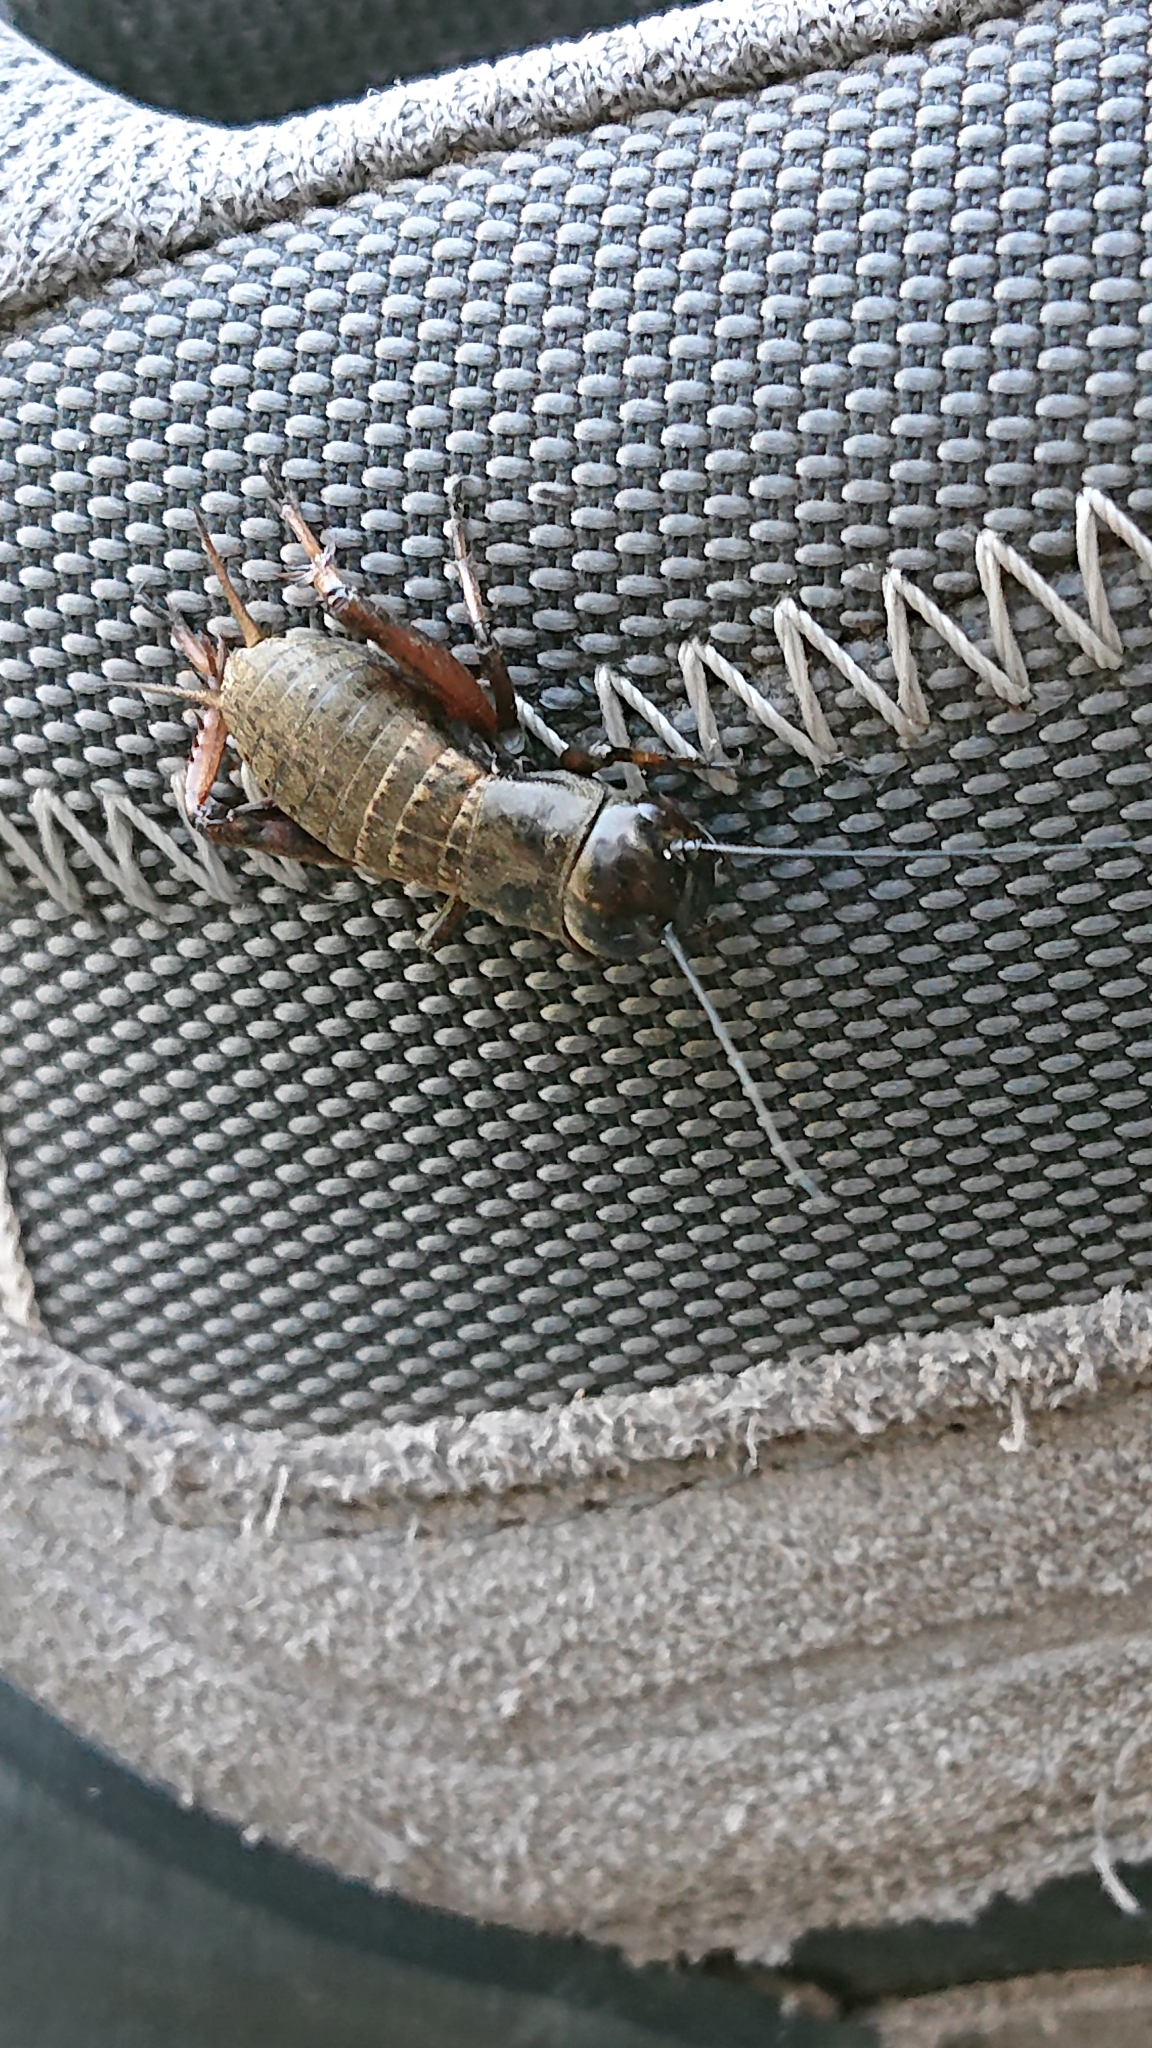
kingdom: Animalia
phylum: Arthropoda
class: Insecta
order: Orthoptera
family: Gryllidae
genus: Gryllus
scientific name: Gryllus campestris
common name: Field cricket
